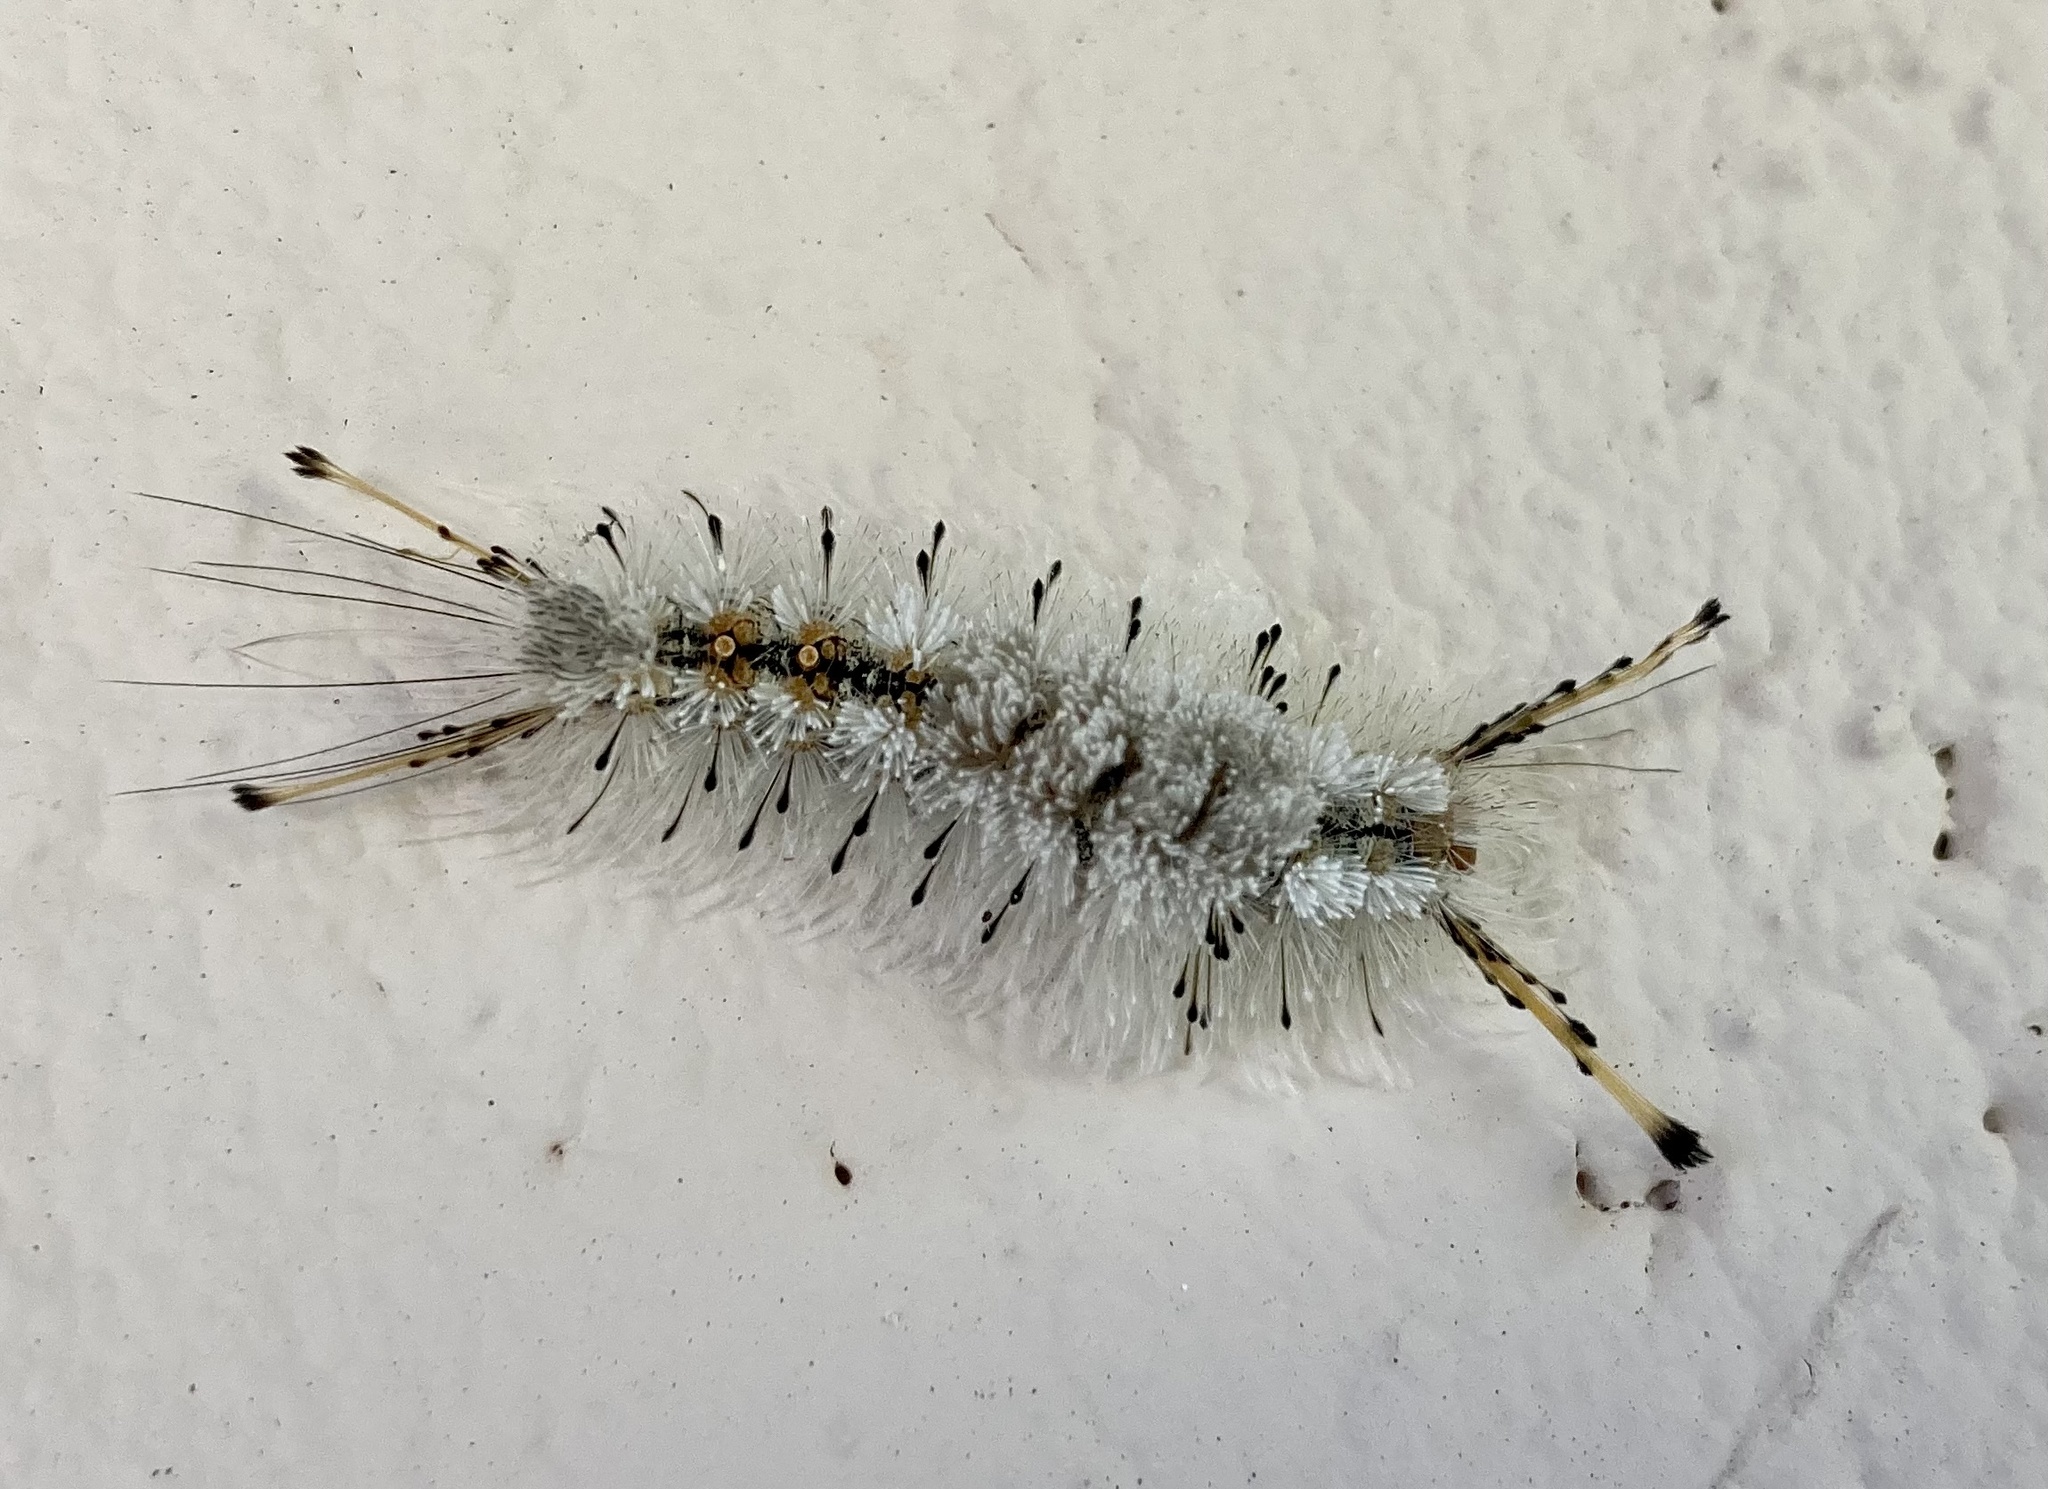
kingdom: Animalia
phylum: Arthropoda
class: Insecta
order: Lepidoptera
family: Erebidae
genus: Dasychira
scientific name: Dasychira meridionalis
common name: Southern tussock moth
